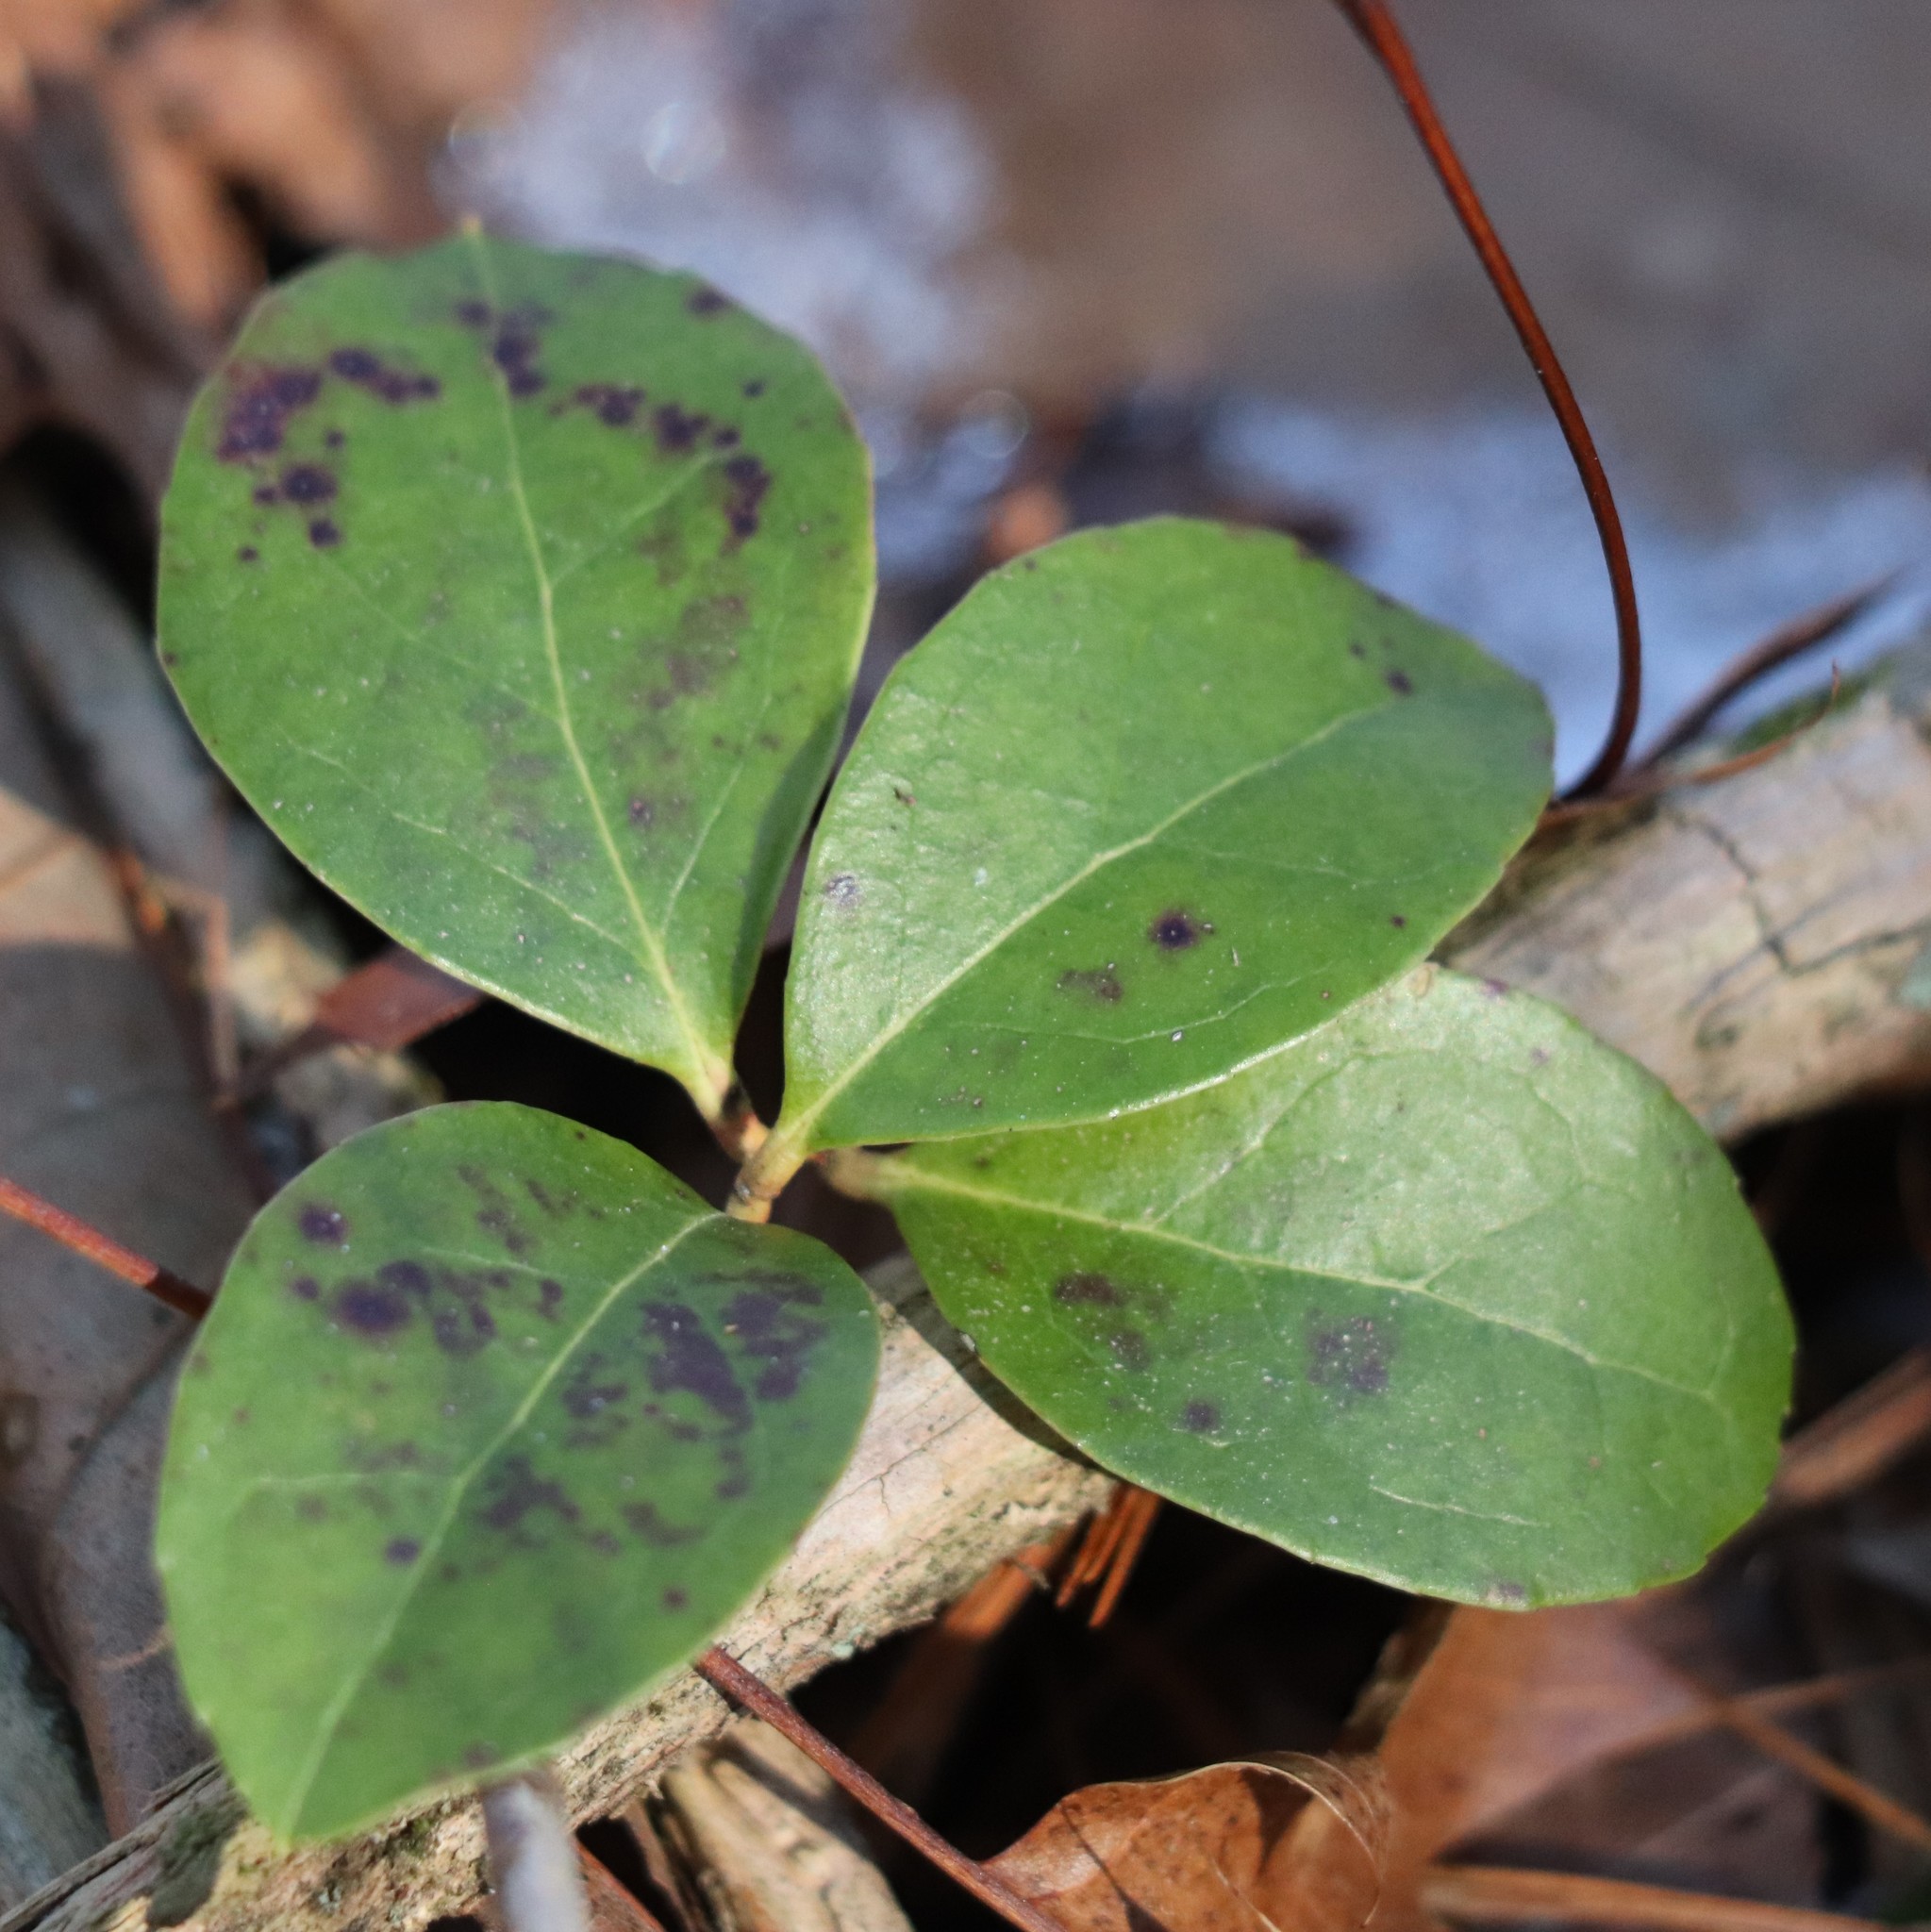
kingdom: Plantae
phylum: Tracheophyta
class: Magnoliopsida
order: Ericales
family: Ericaceae
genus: Gaultheria
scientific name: Gaultheria procumbens
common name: Checkerberry
